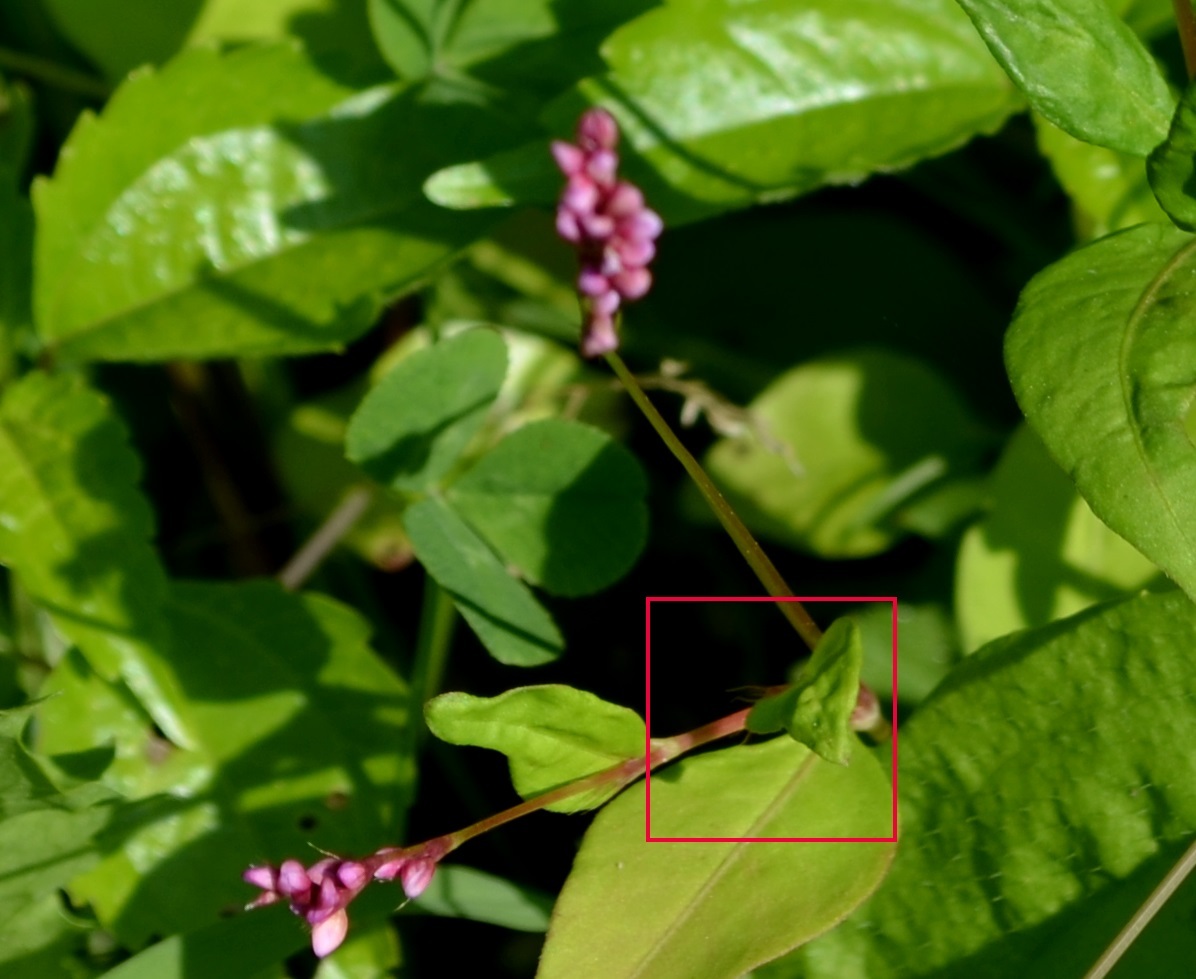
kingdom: Plantae
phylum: Tracheophyta
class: Magnoliopsida
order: Caryophyllales
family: Polygonaceae
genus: Persicaria
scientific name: Persicaria longiseta
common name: Bristly lady's-thumb
